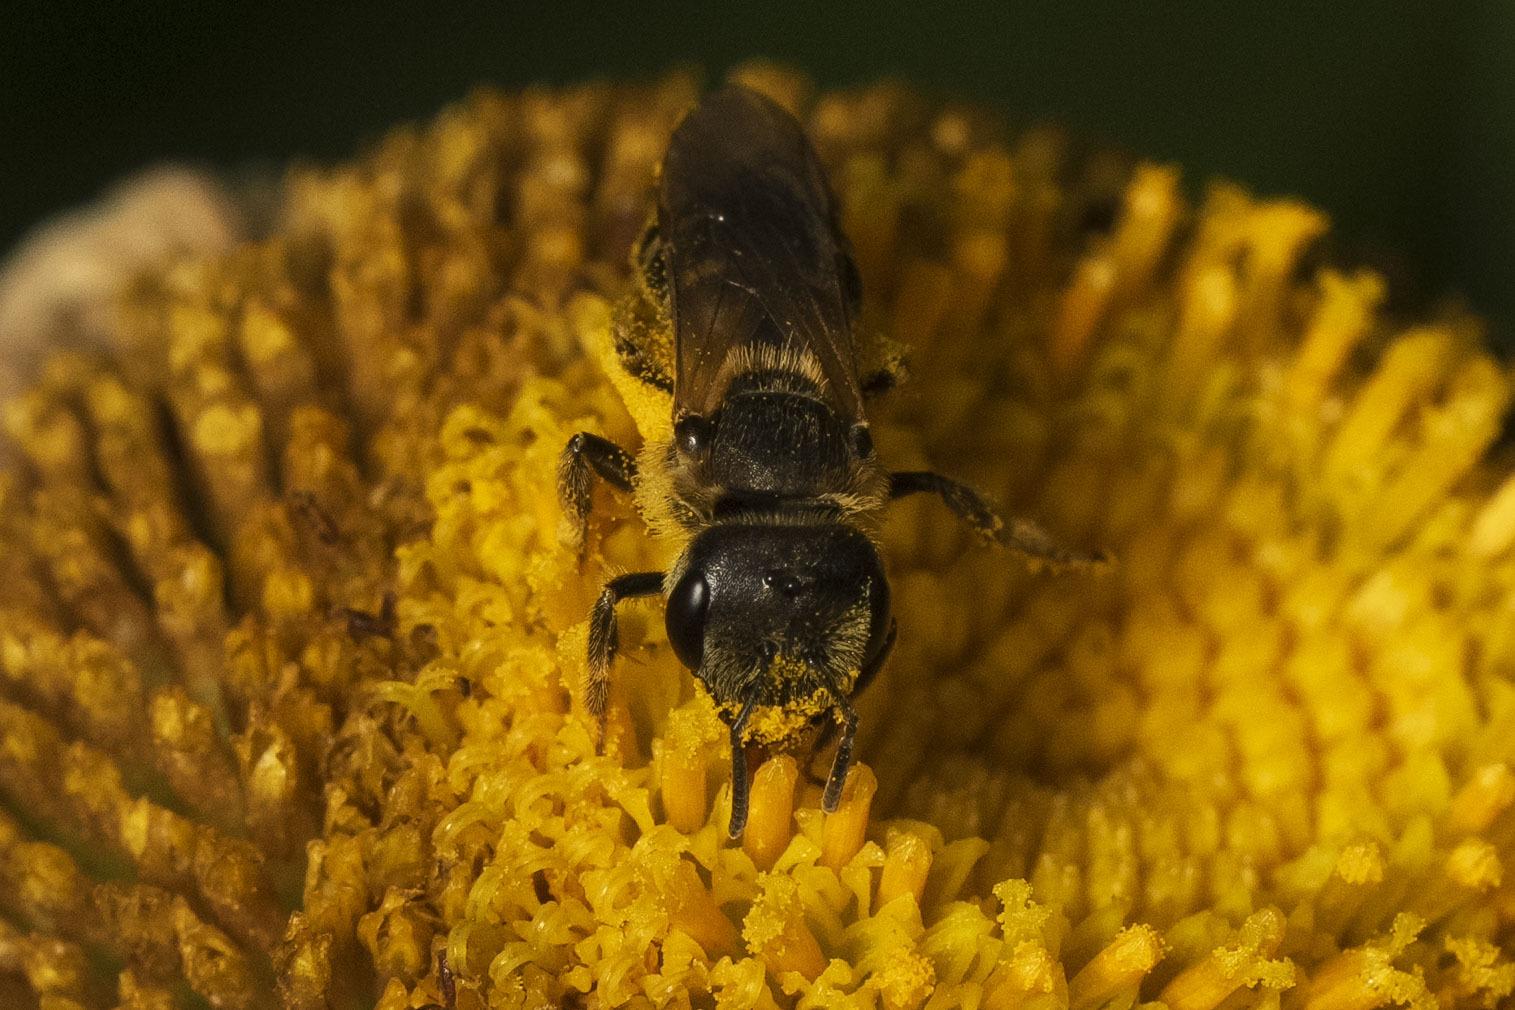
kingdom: Animalia
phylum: Arthropoda
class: Insecta
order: Hymenoptera
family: Halictidae
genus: Halictus
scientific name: Halictus ligatus
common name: Ligated furrow bee
